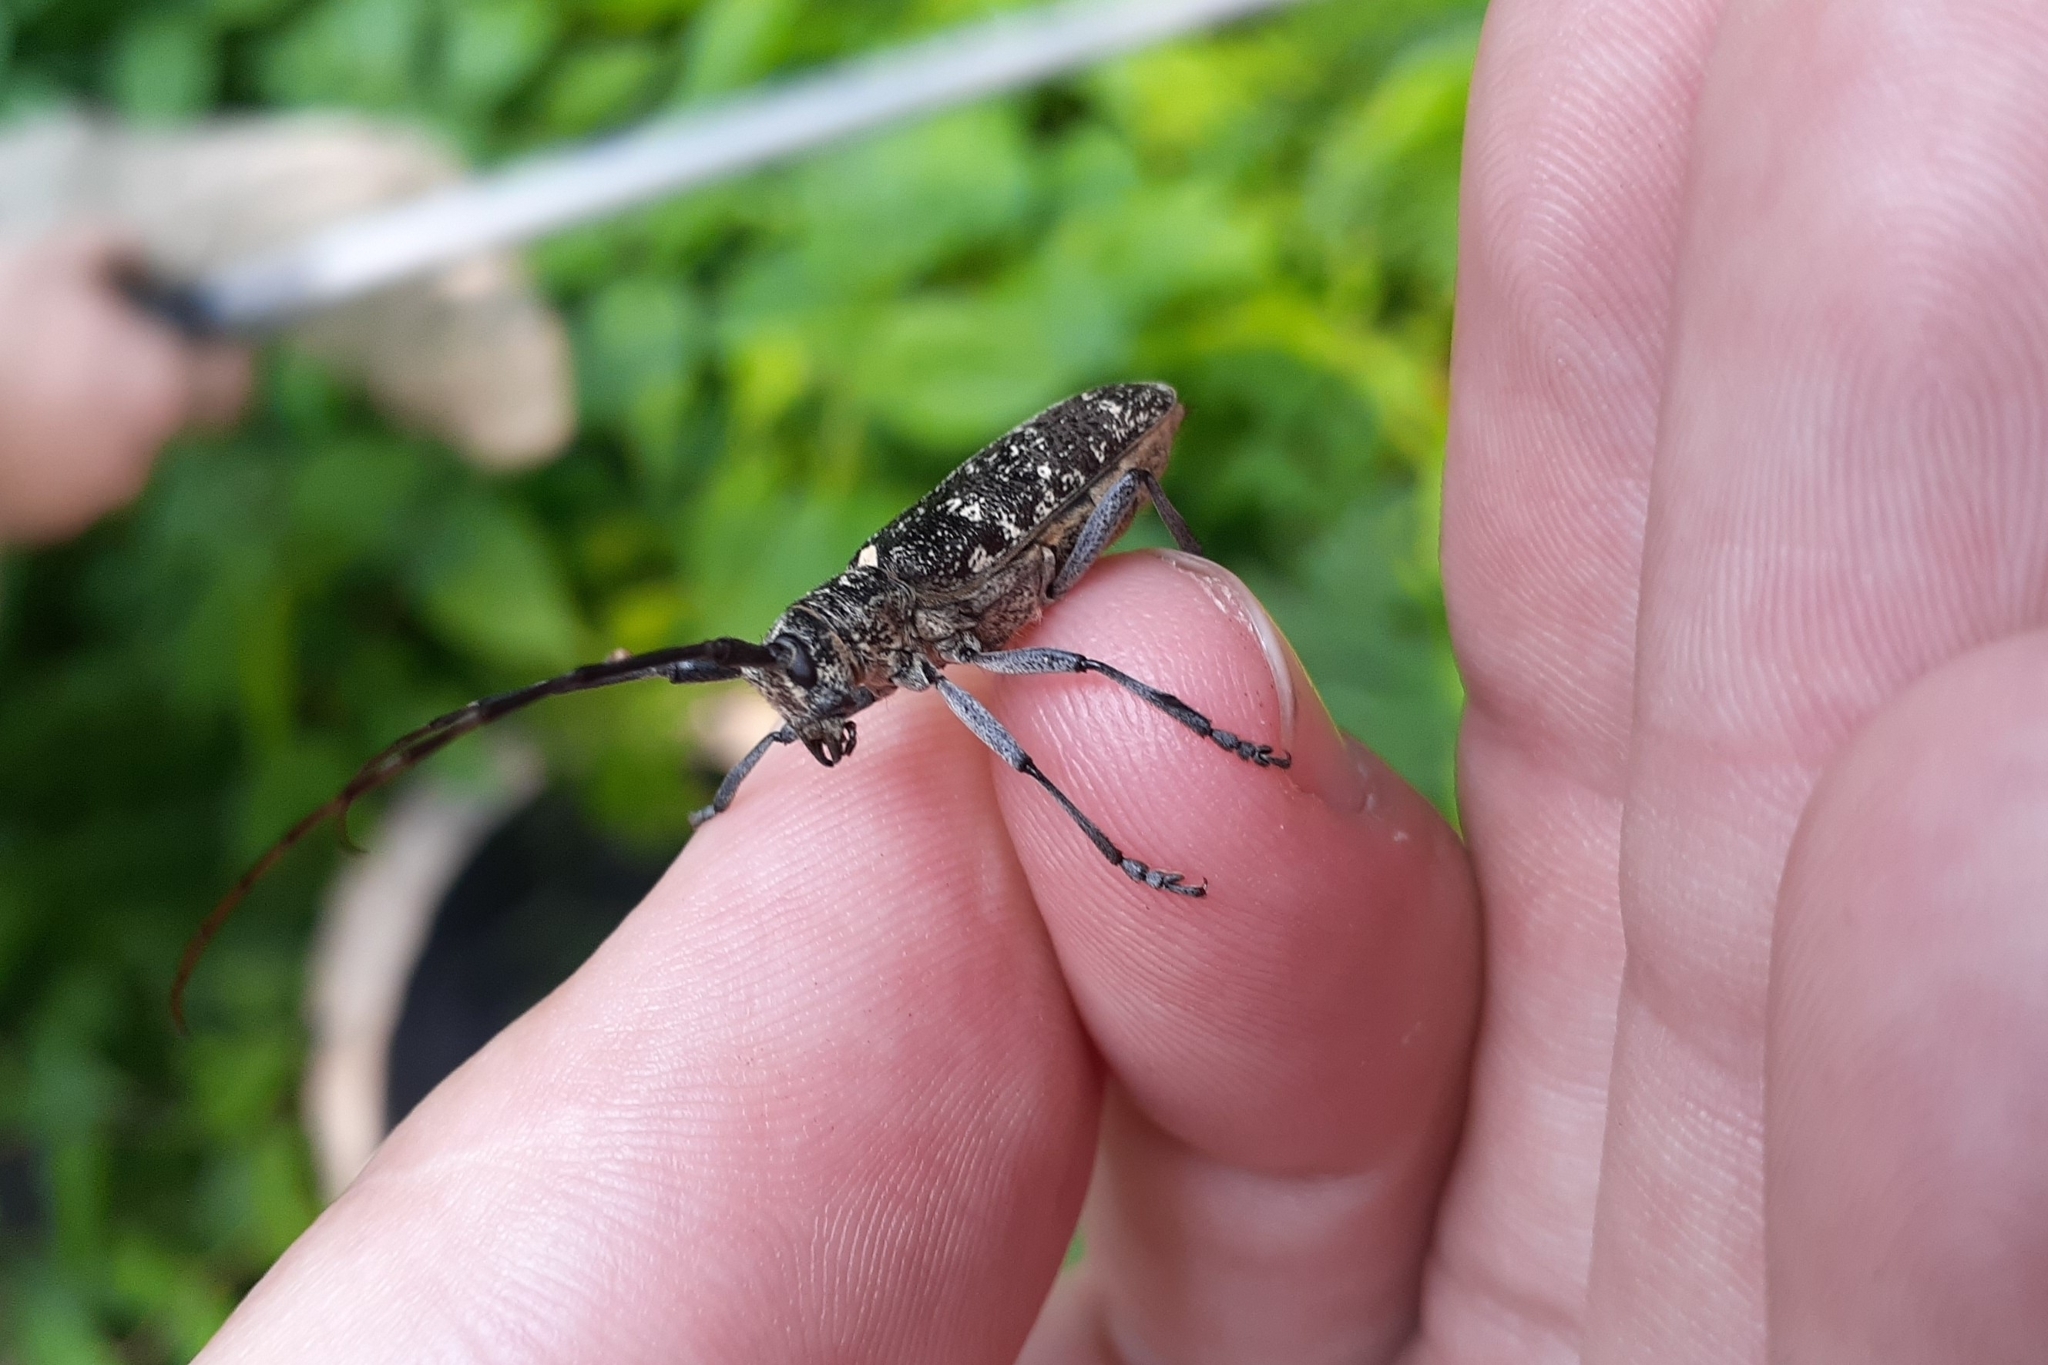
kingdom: Animalia
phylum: Arthropoda
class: Insecta
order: Coleoptera
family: Cerambycidae
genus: Monochamus
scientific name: Monochamus scutellatus
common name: White-spotted sawyer beetle
